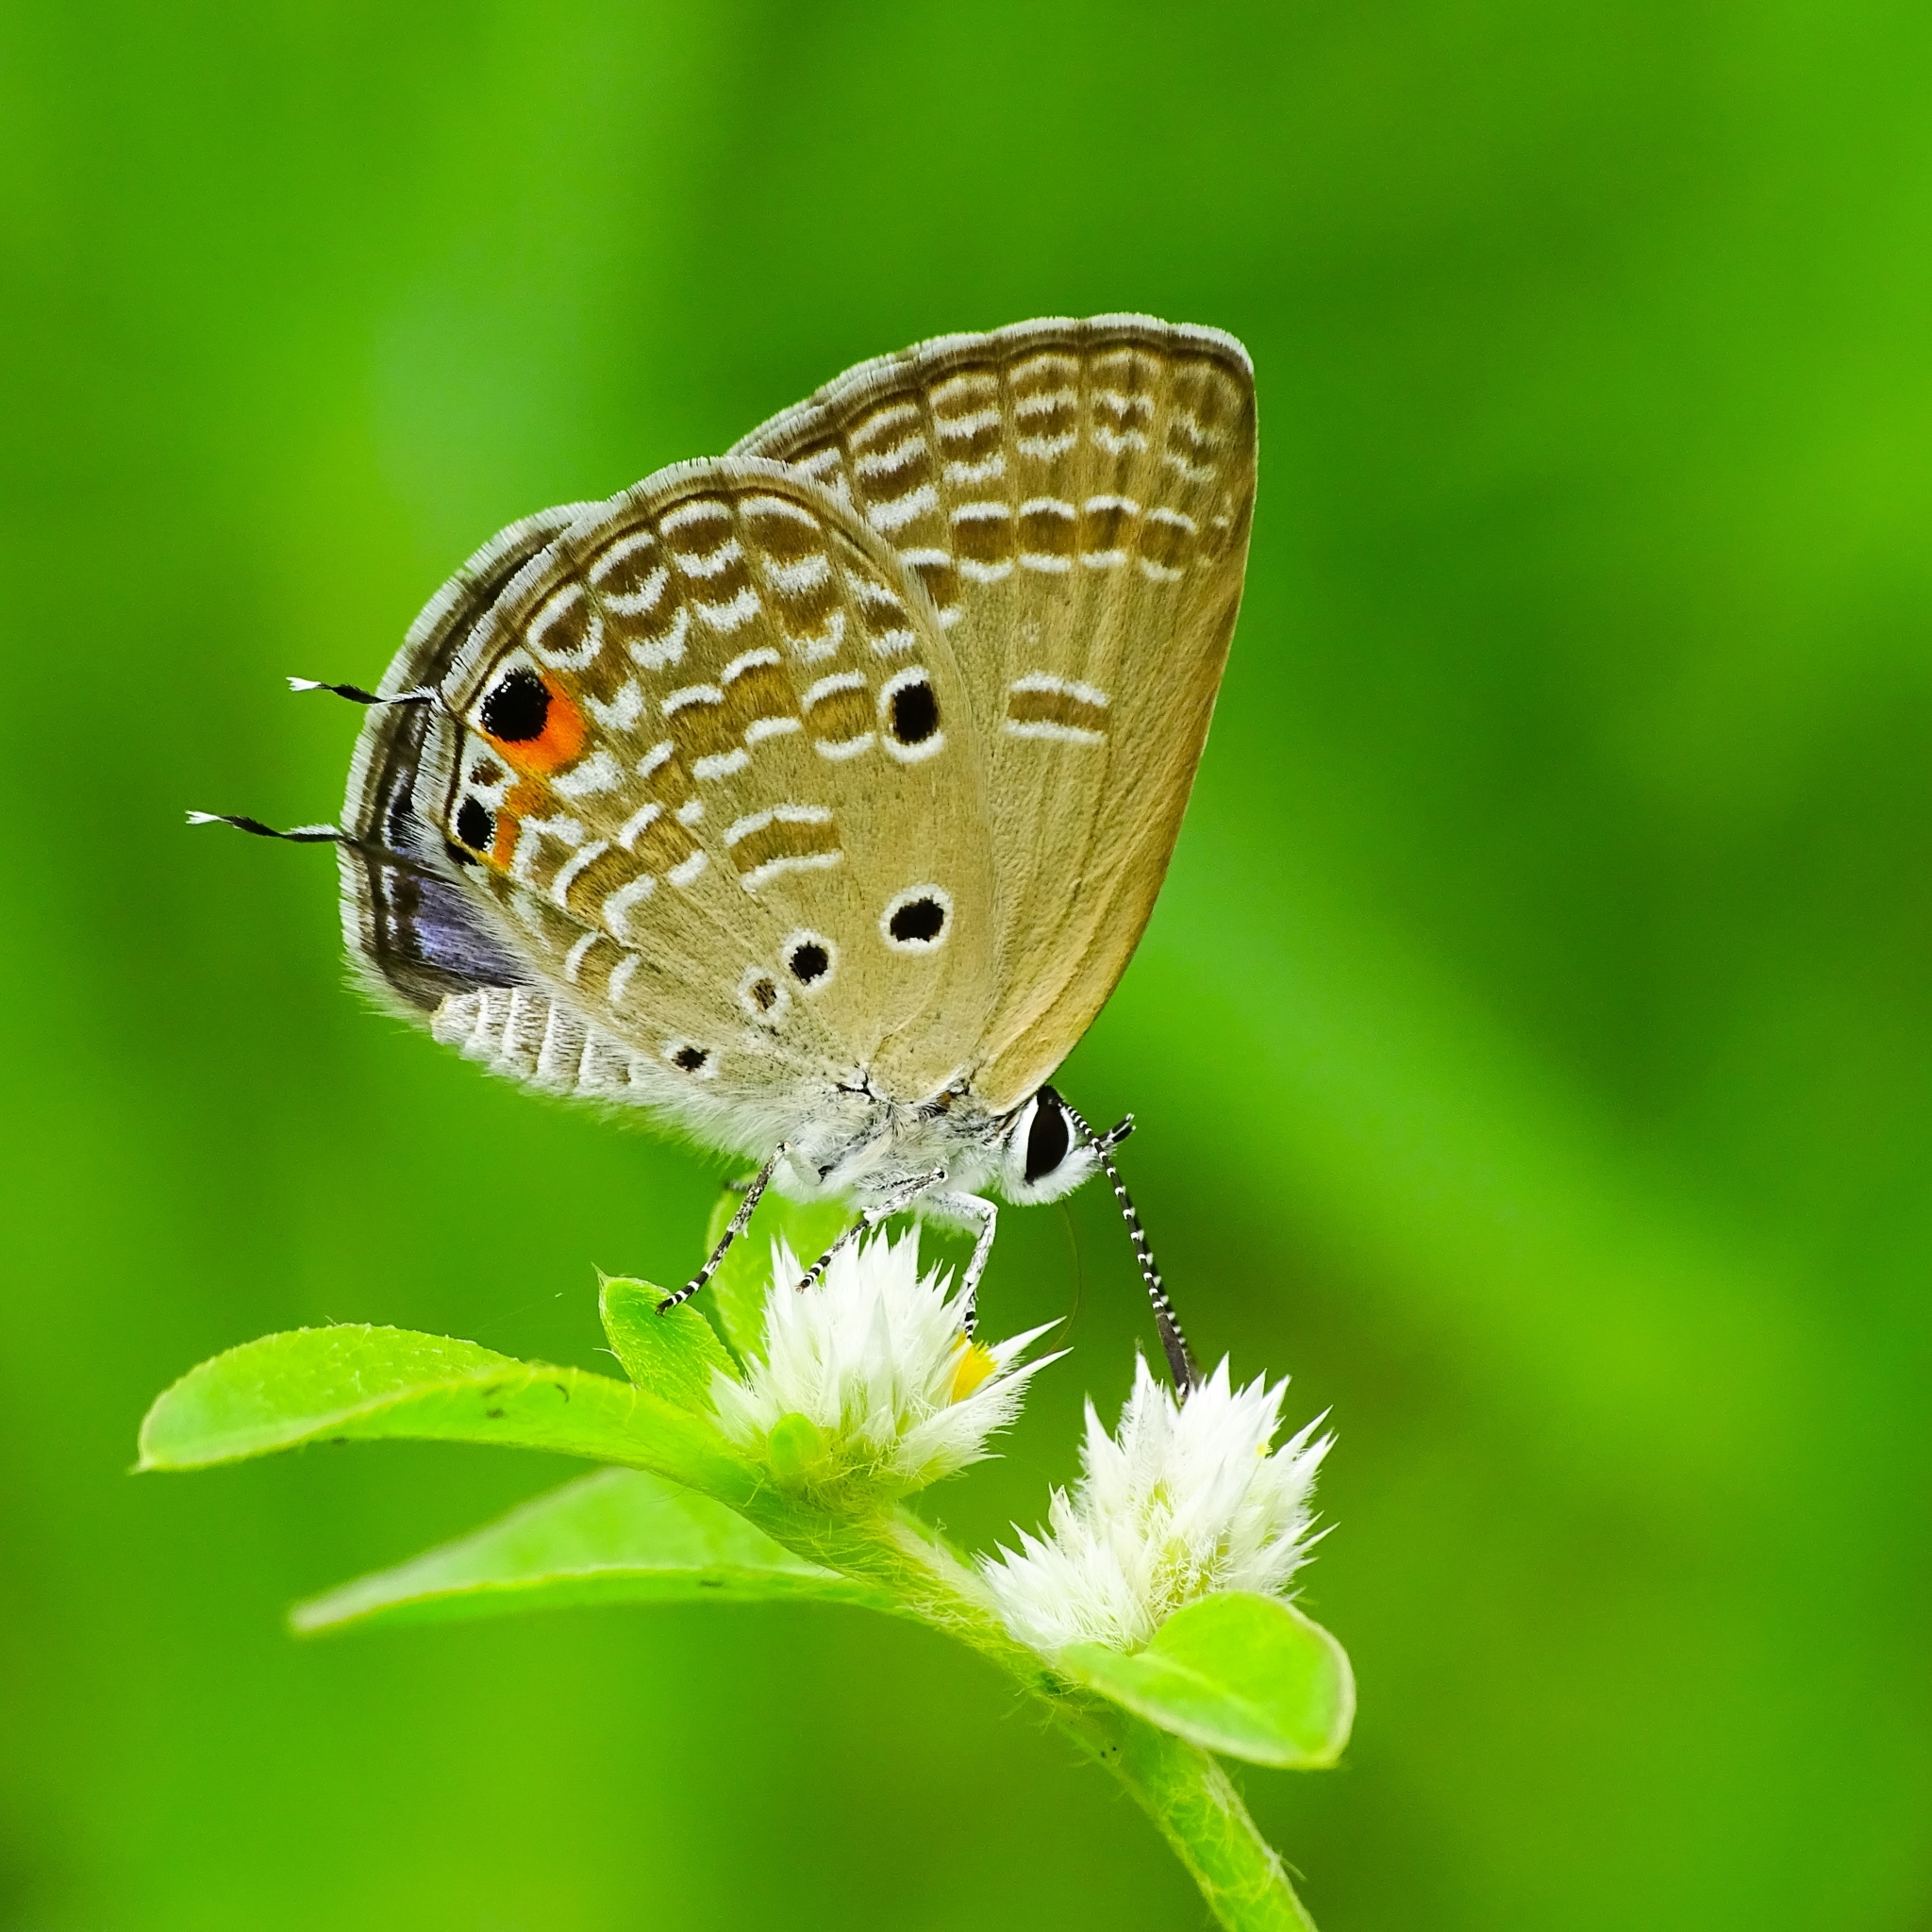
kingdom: Animalia
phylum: Arthropoda
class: Insecta
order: Lepidoptera
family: Lycaenidae
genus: Luthrodes
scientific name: Luthrodes pandava
